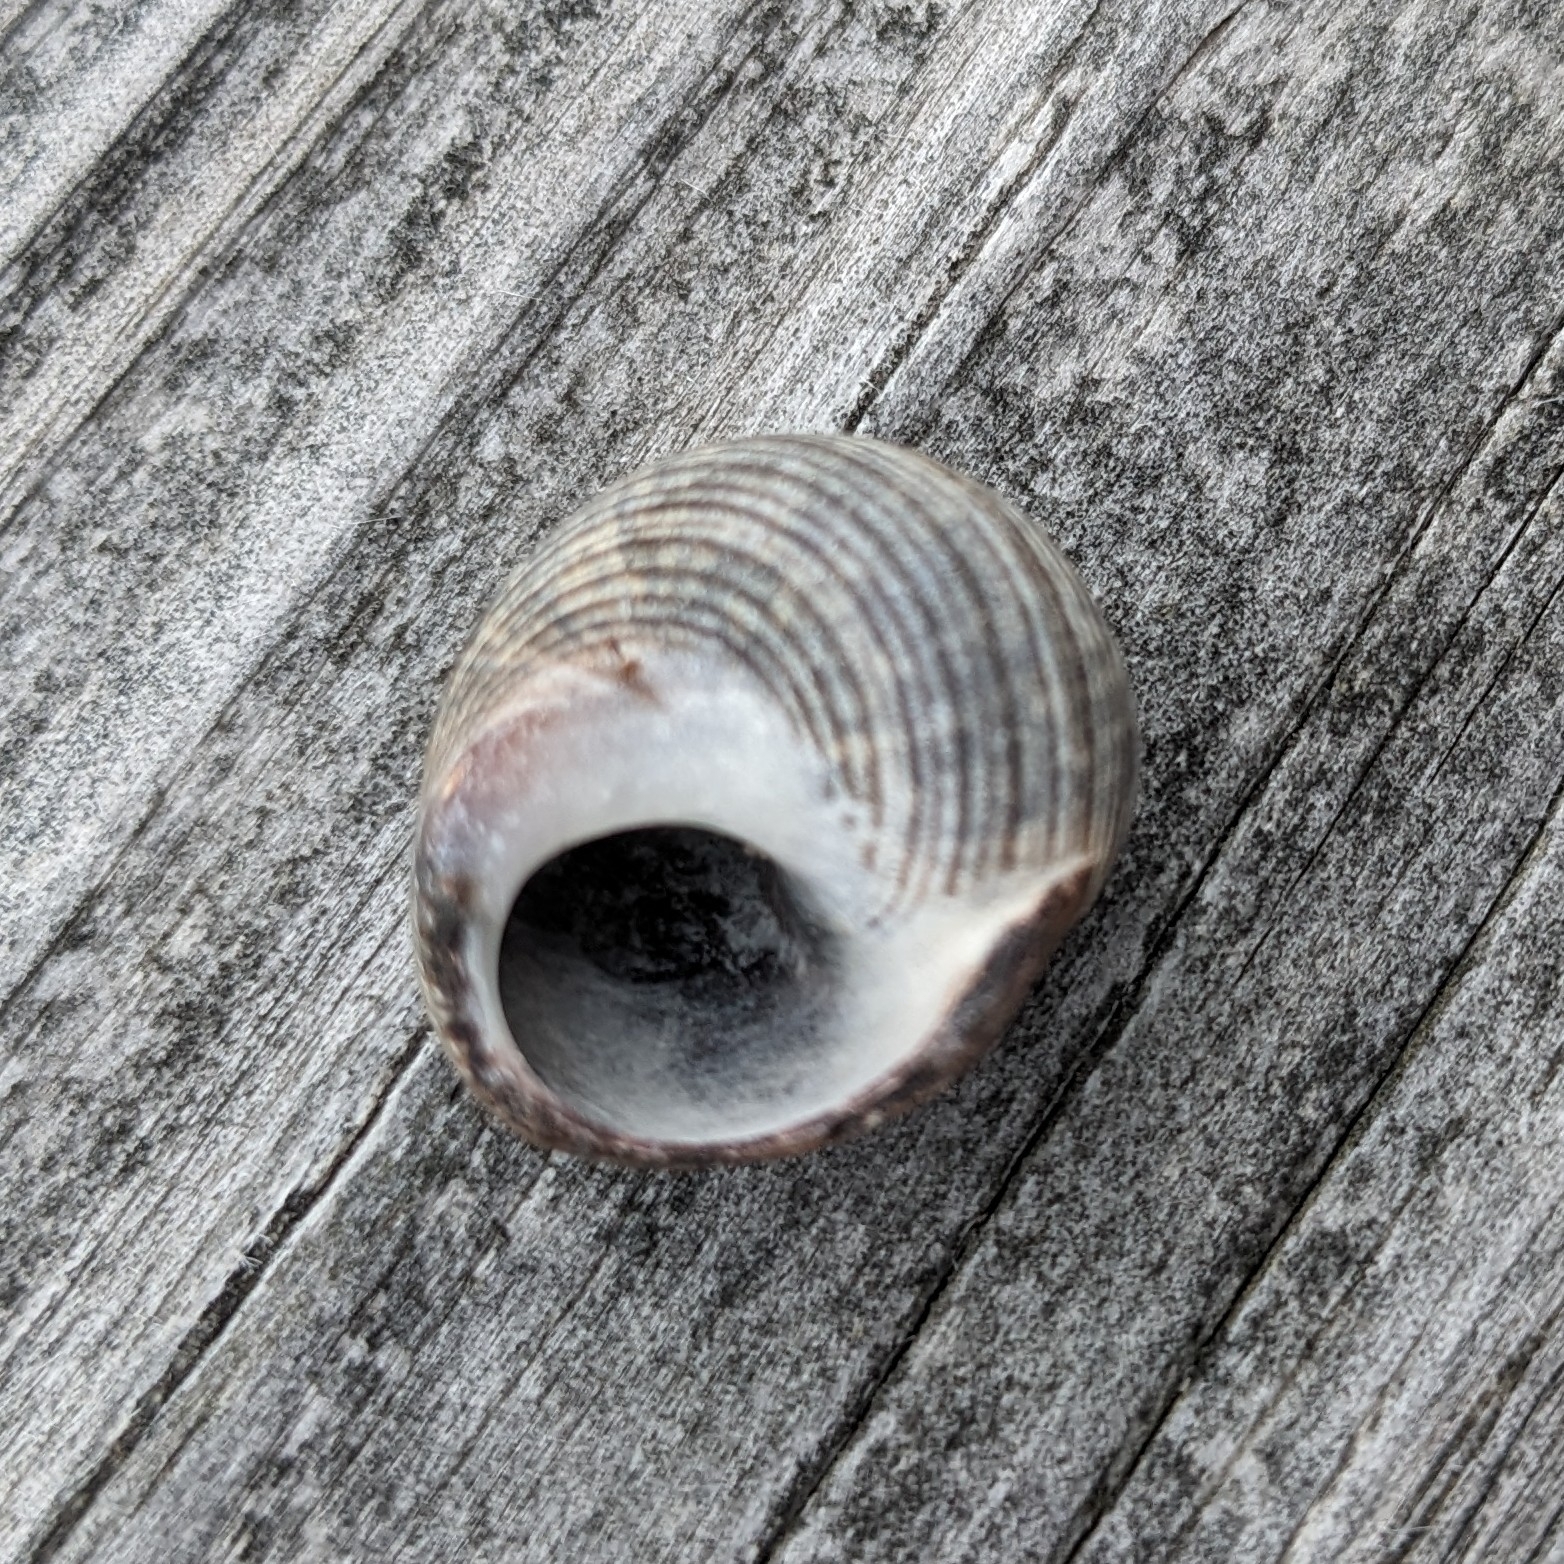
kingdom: Animalia
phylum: Mollusca
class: Gastropoda
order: Littorinimorpha
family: Littorinidae
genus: Littorina
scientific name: Littorina littorea
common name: Common periwinkle
